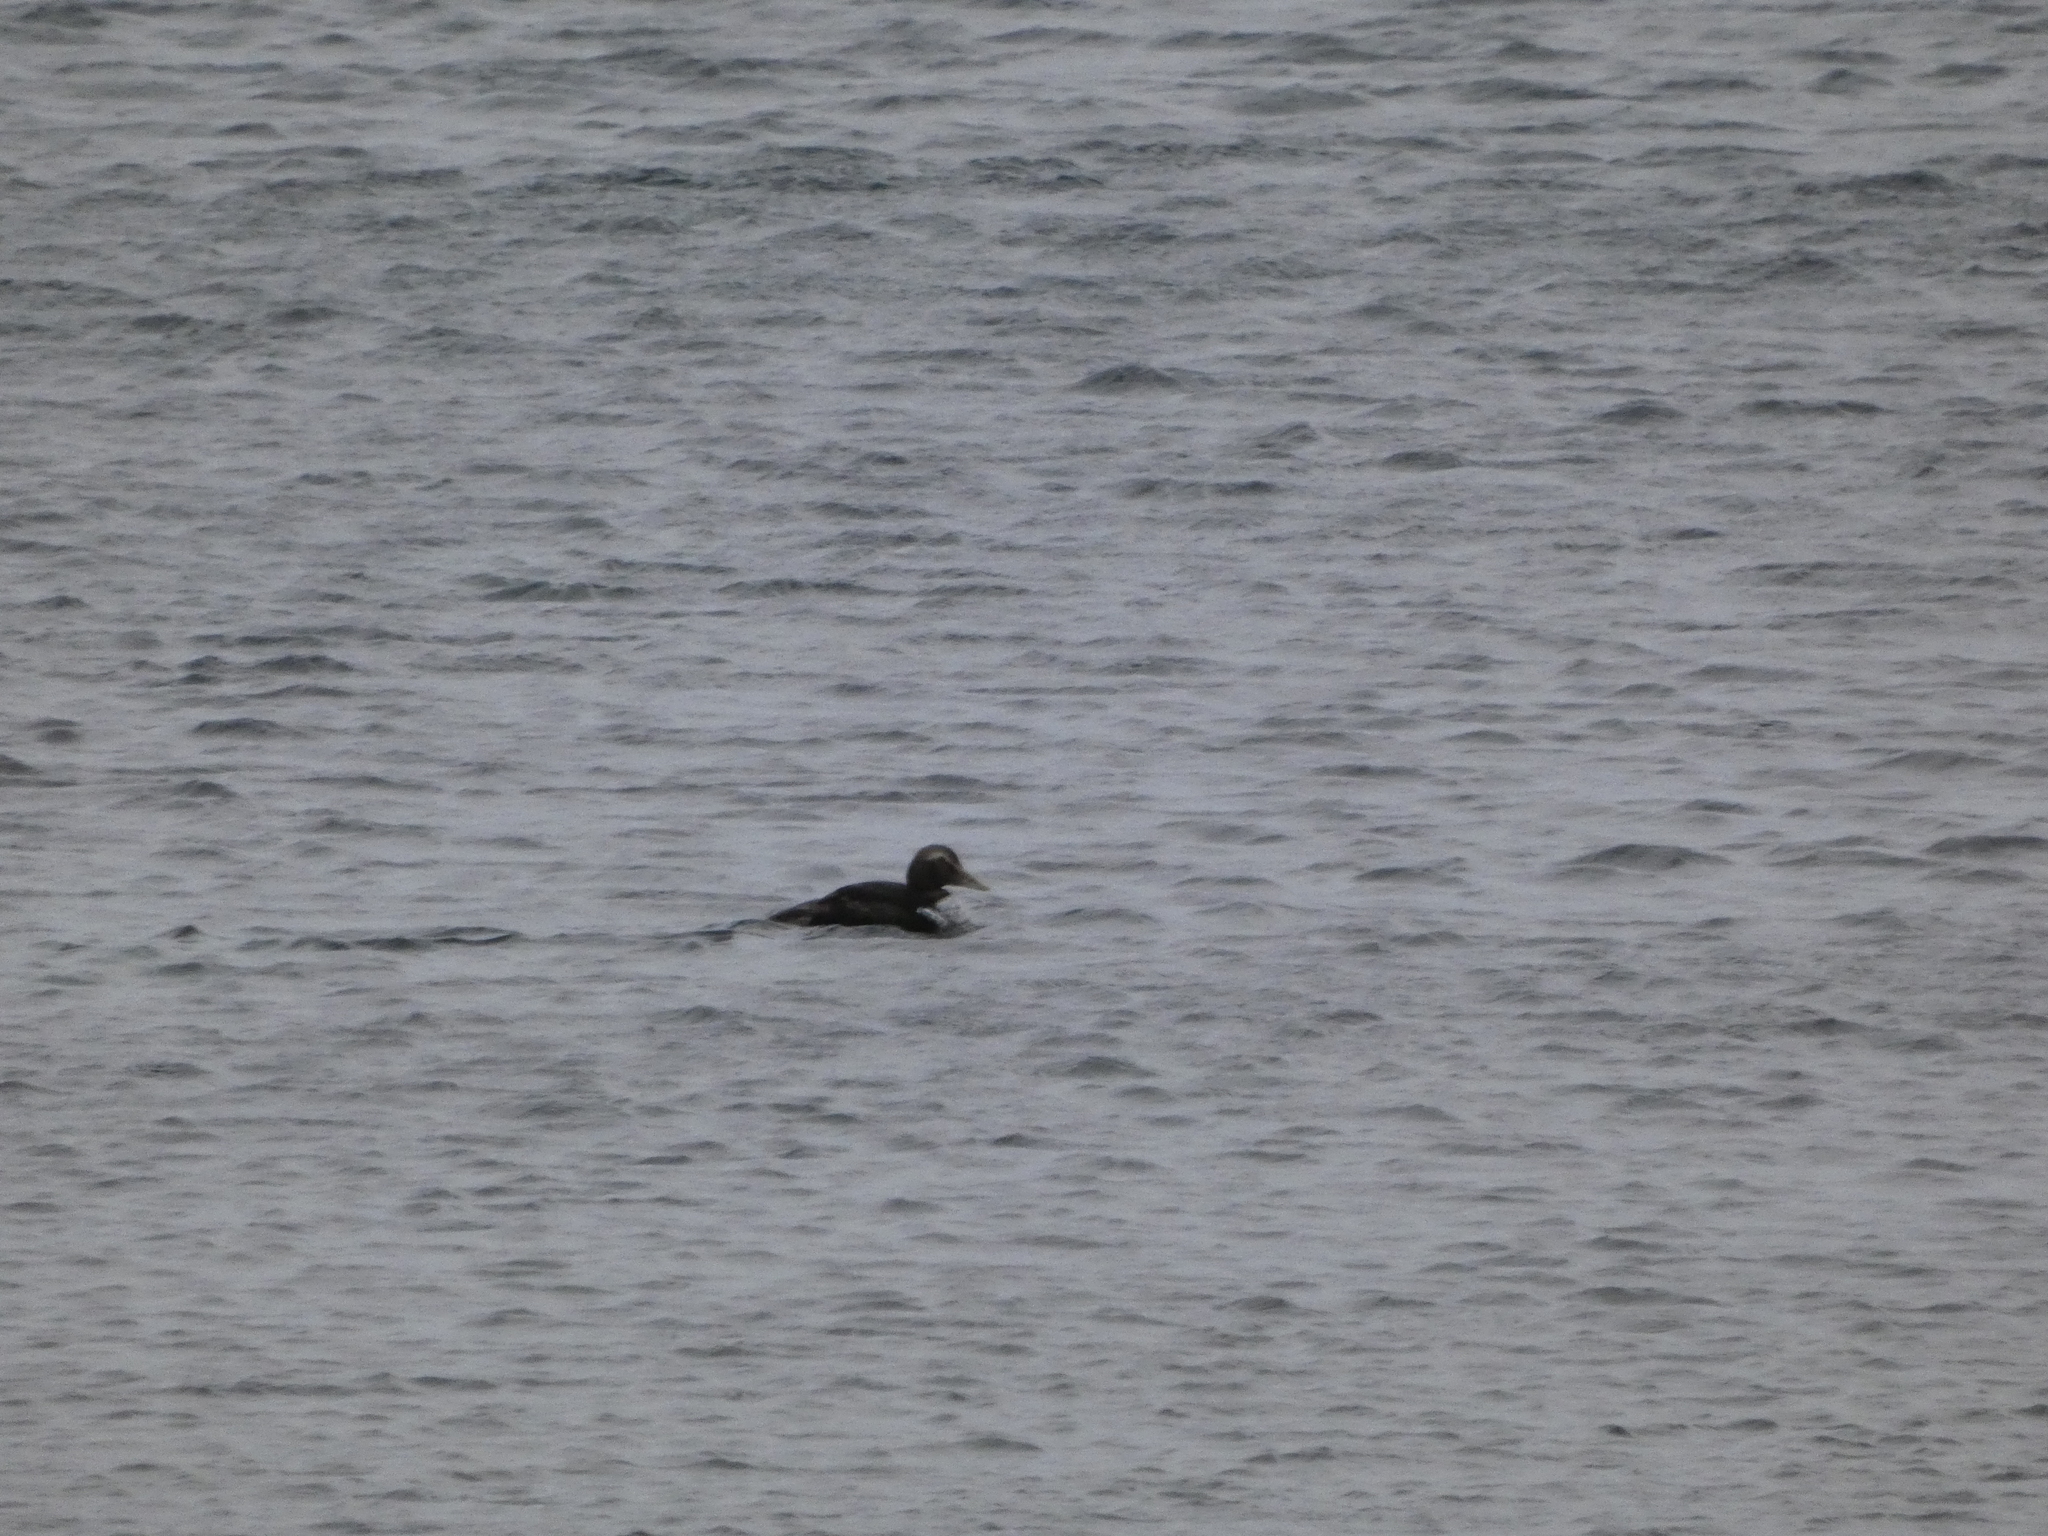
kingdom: Animalia
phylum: Chordata
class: Aves
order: Anseriformes
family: Anatidae
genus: Somateria
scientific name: Somateria mollissima
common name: Common eider
